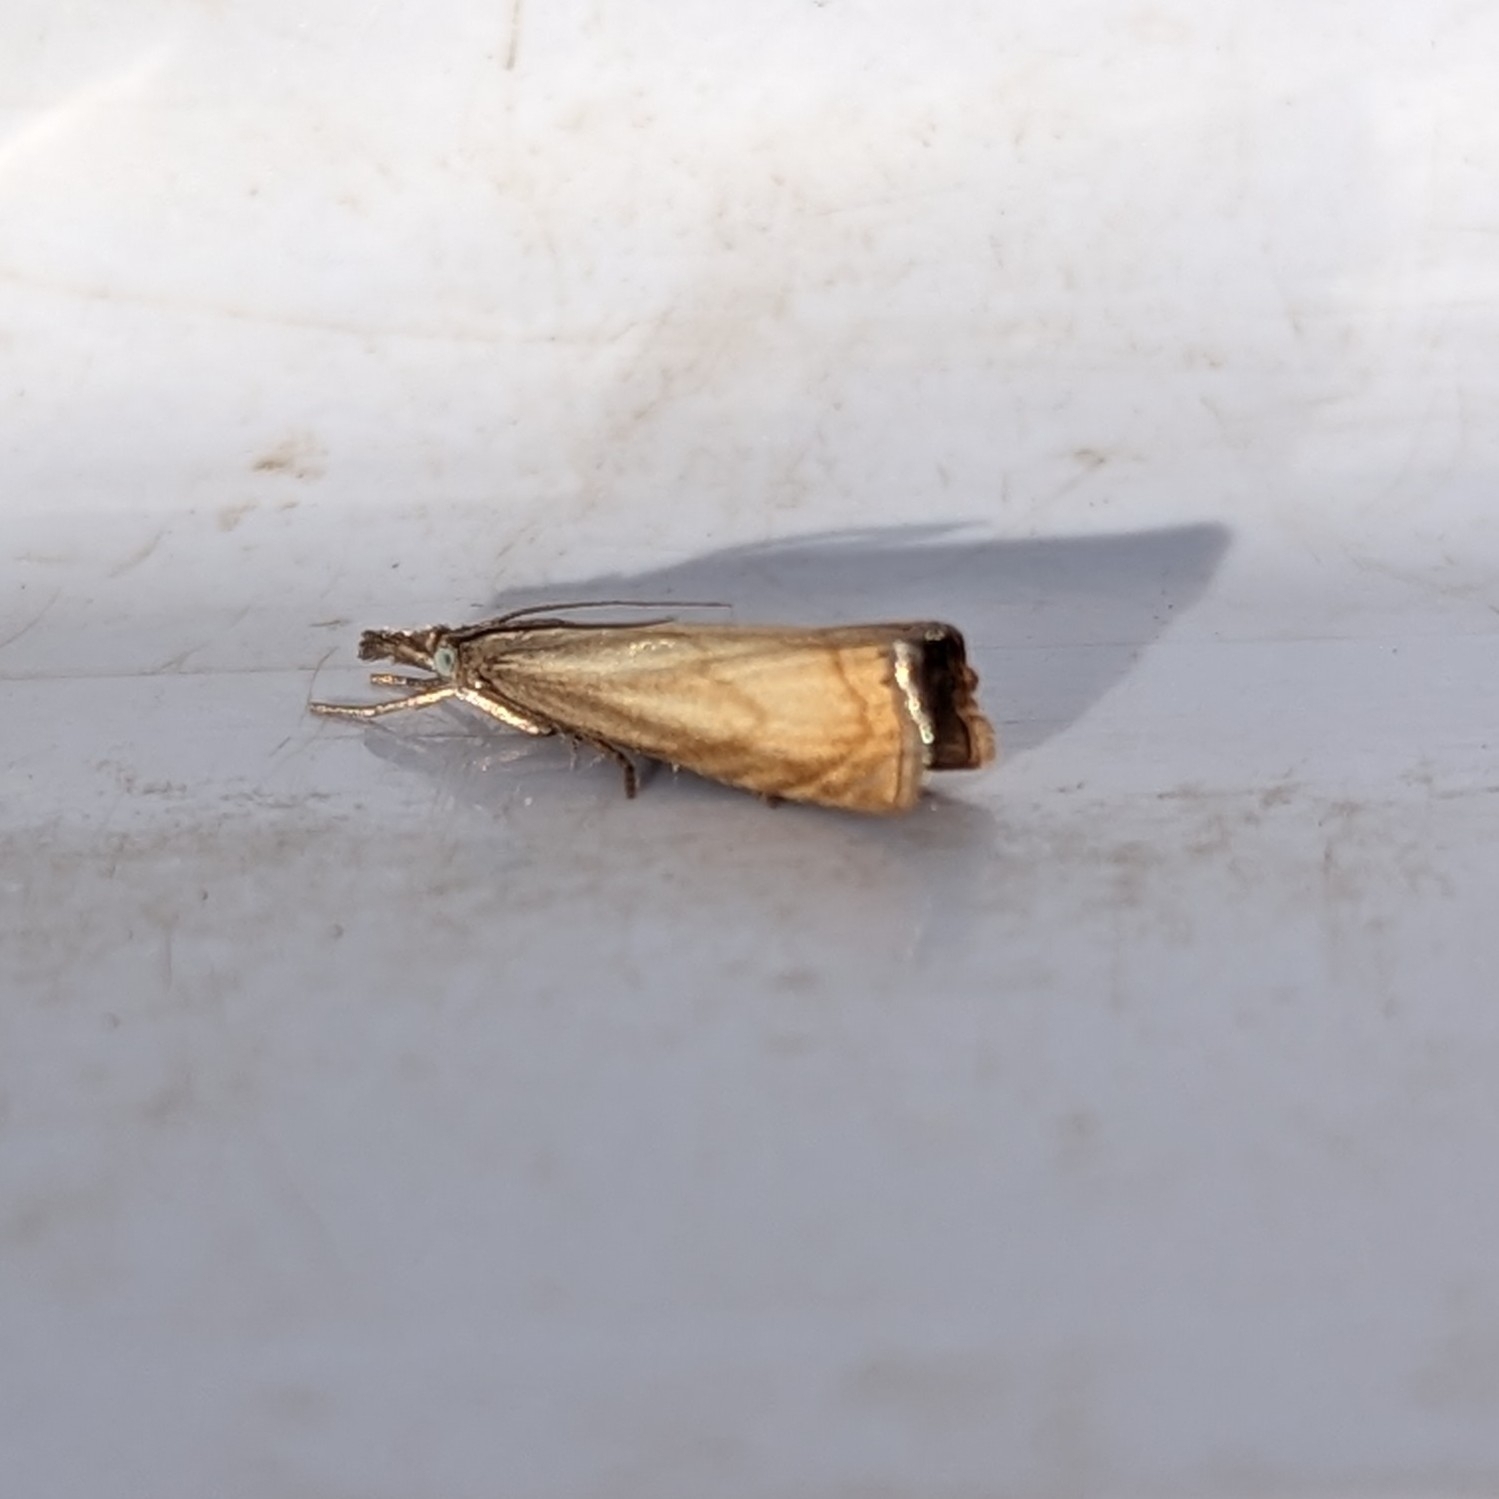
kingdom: Animalia
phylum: Arthropoda
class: Insecta
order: Lepidoptera
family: Crambidae
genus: Chrysoteuchia
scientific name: Chrysoteuchia culmella
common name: Garden grass-veneer
